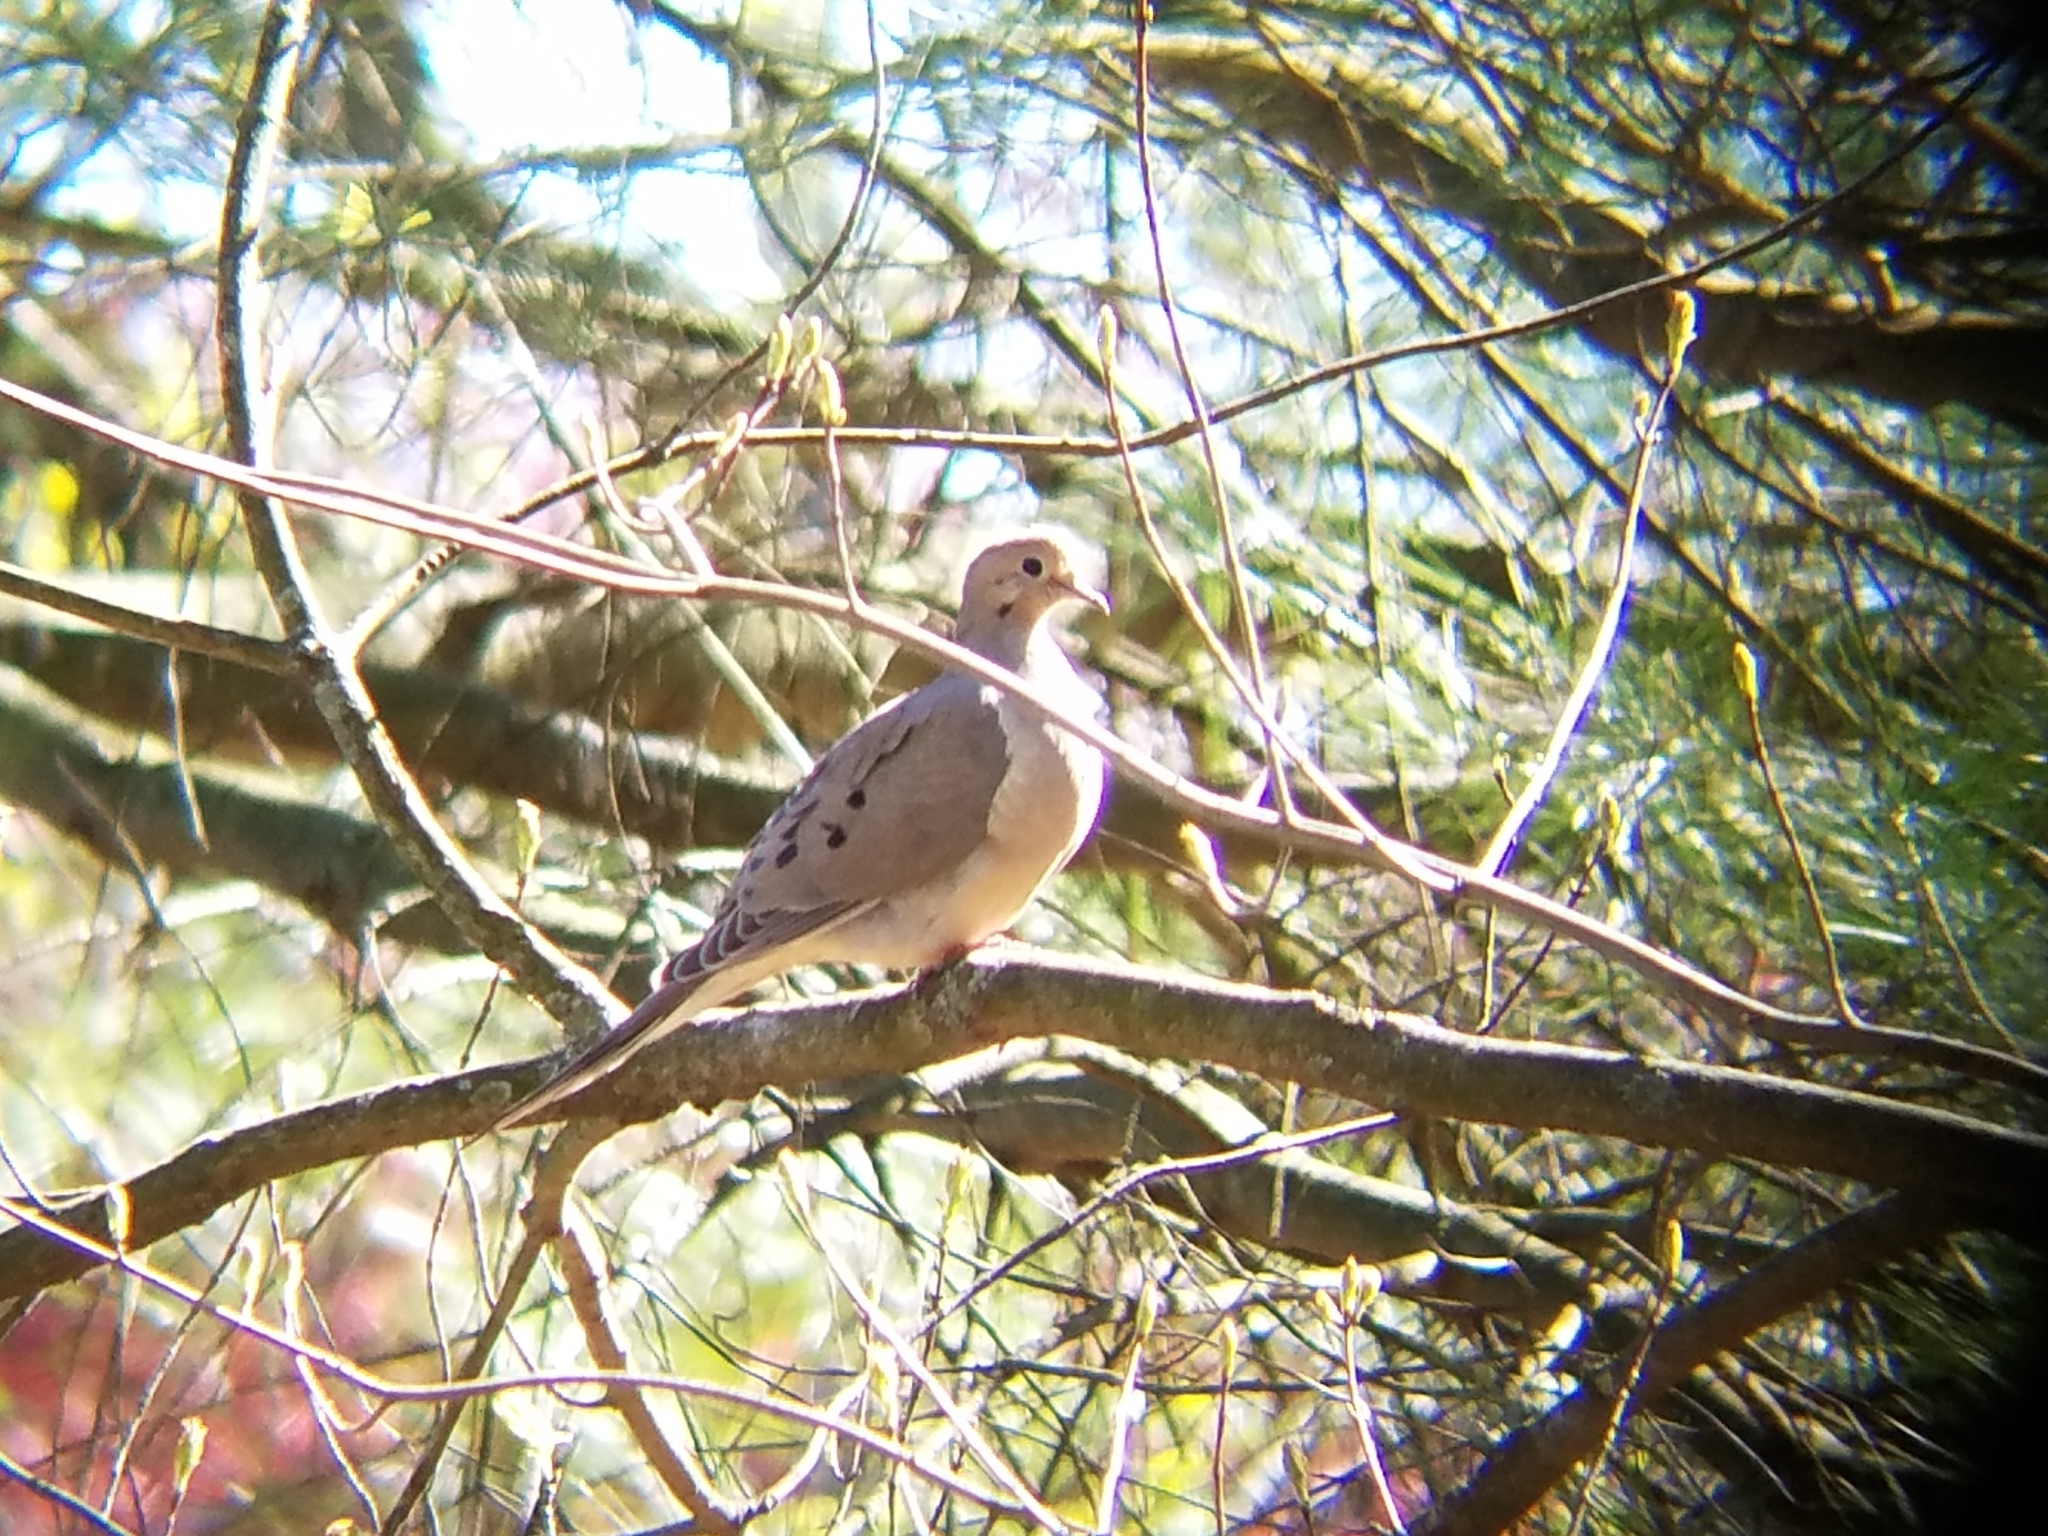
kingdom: Animalia
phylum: Chordata
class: Aves
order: Columbiformes
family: Columbidae
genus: Zenaida
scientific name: Zenaida macroura
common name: Mourning dove
